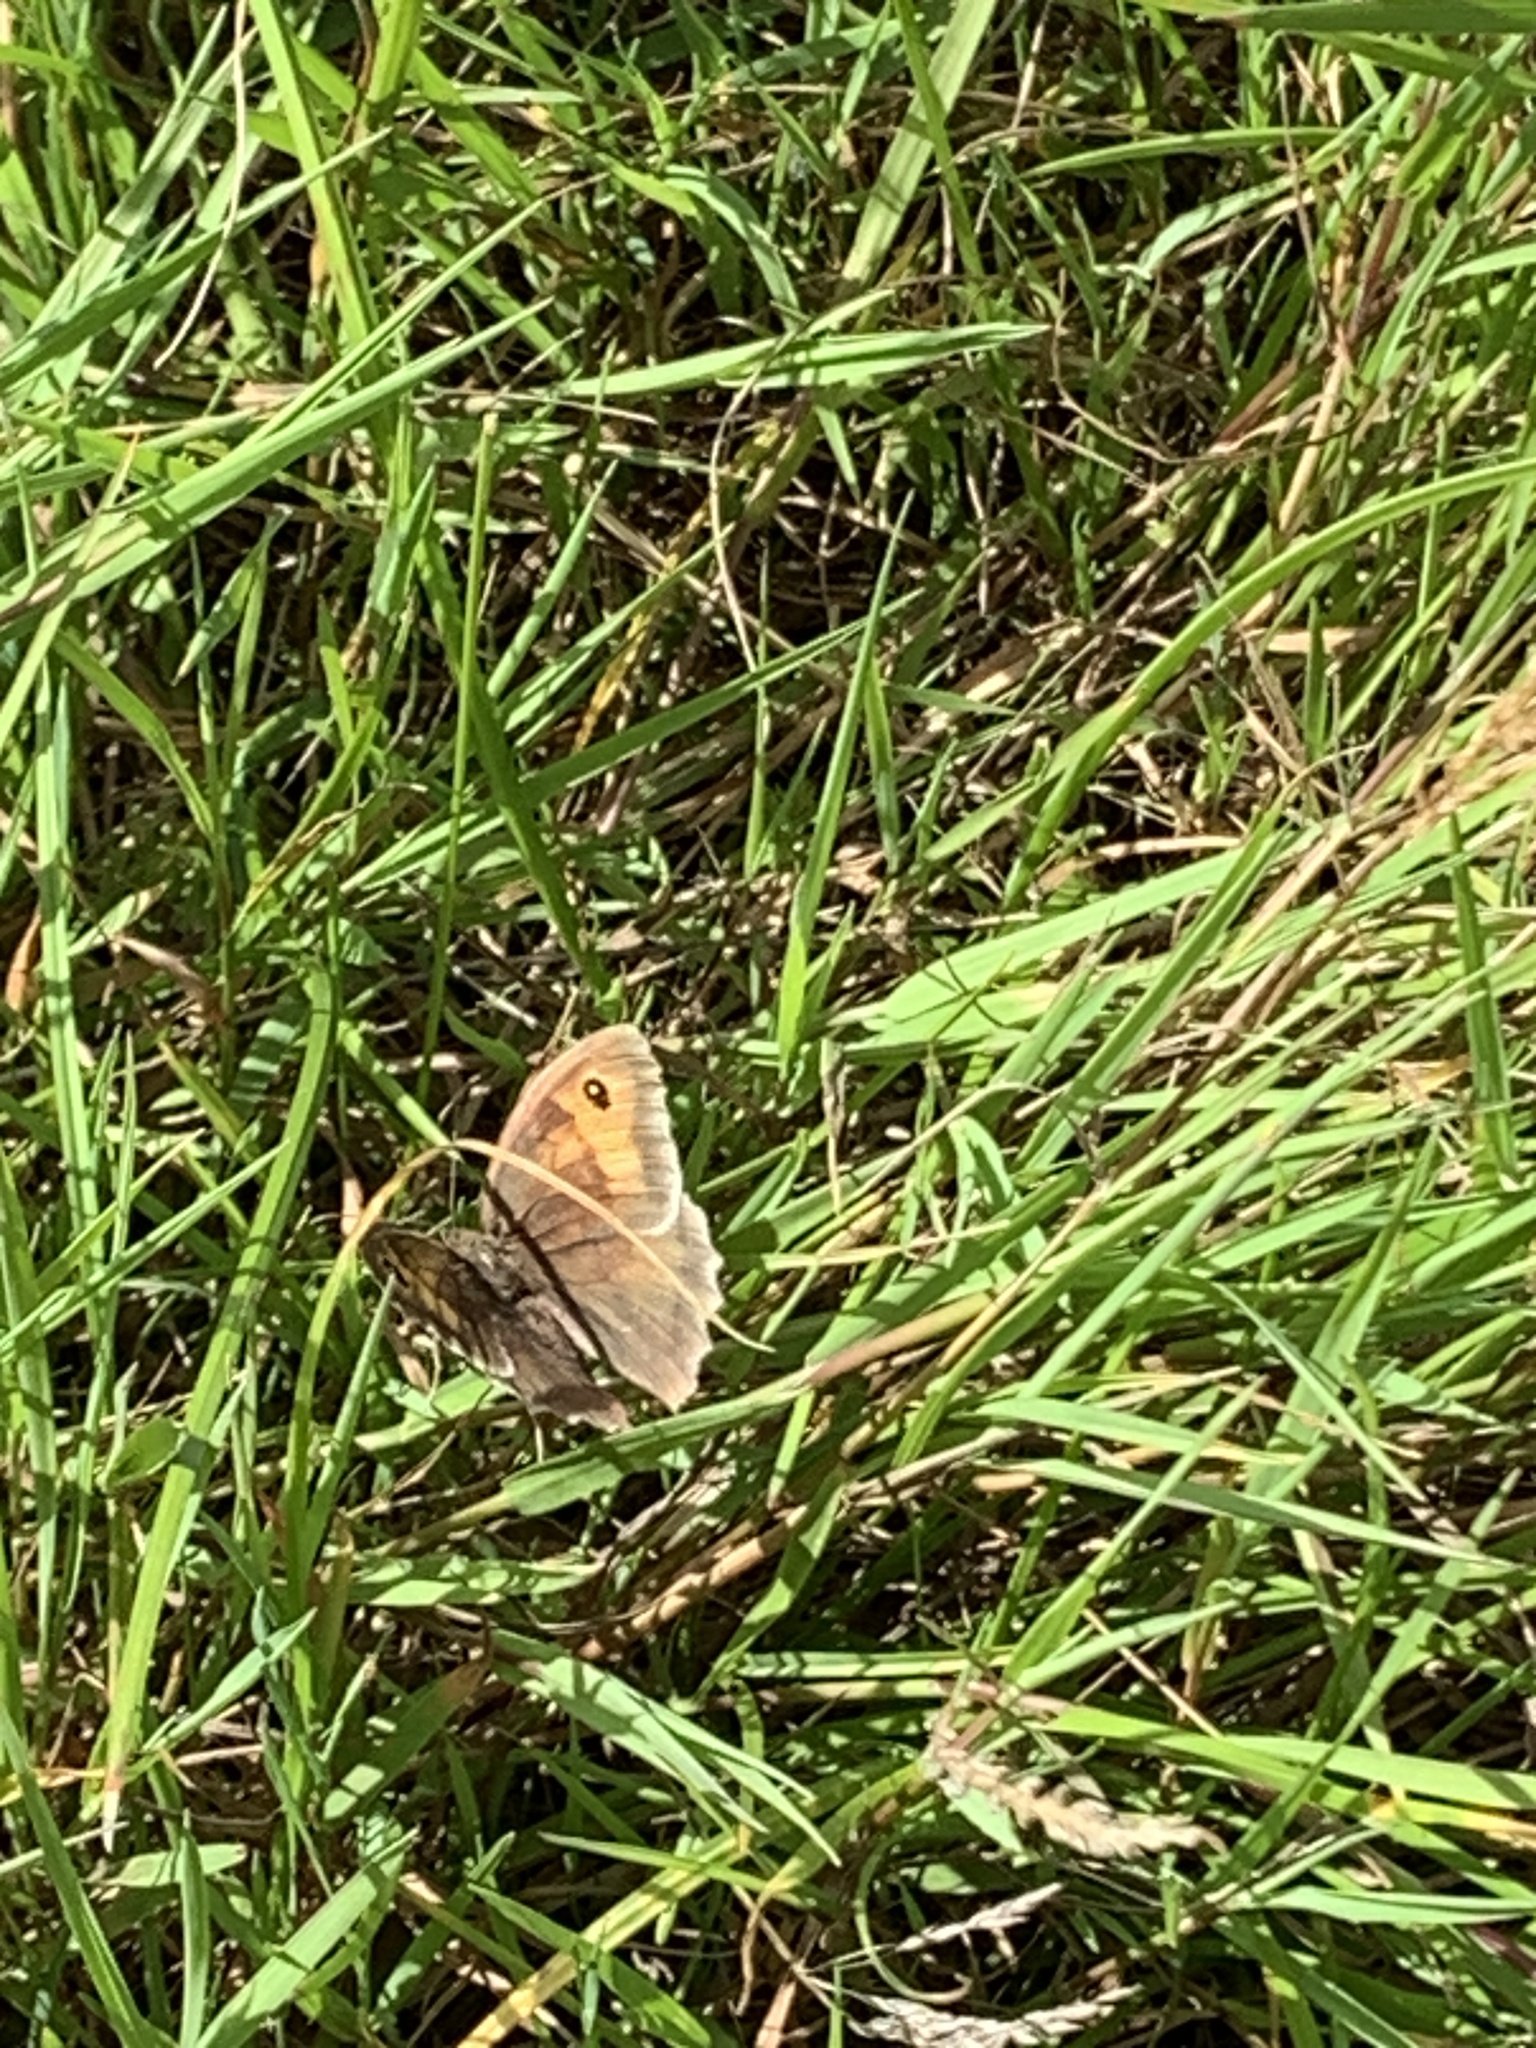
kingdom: Animalia
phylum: Arthropoda
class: Insecta
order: Lepidoptera
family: Nymphalidae
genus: Maniola
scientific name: Maniola jurtina
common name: Meadow brown
